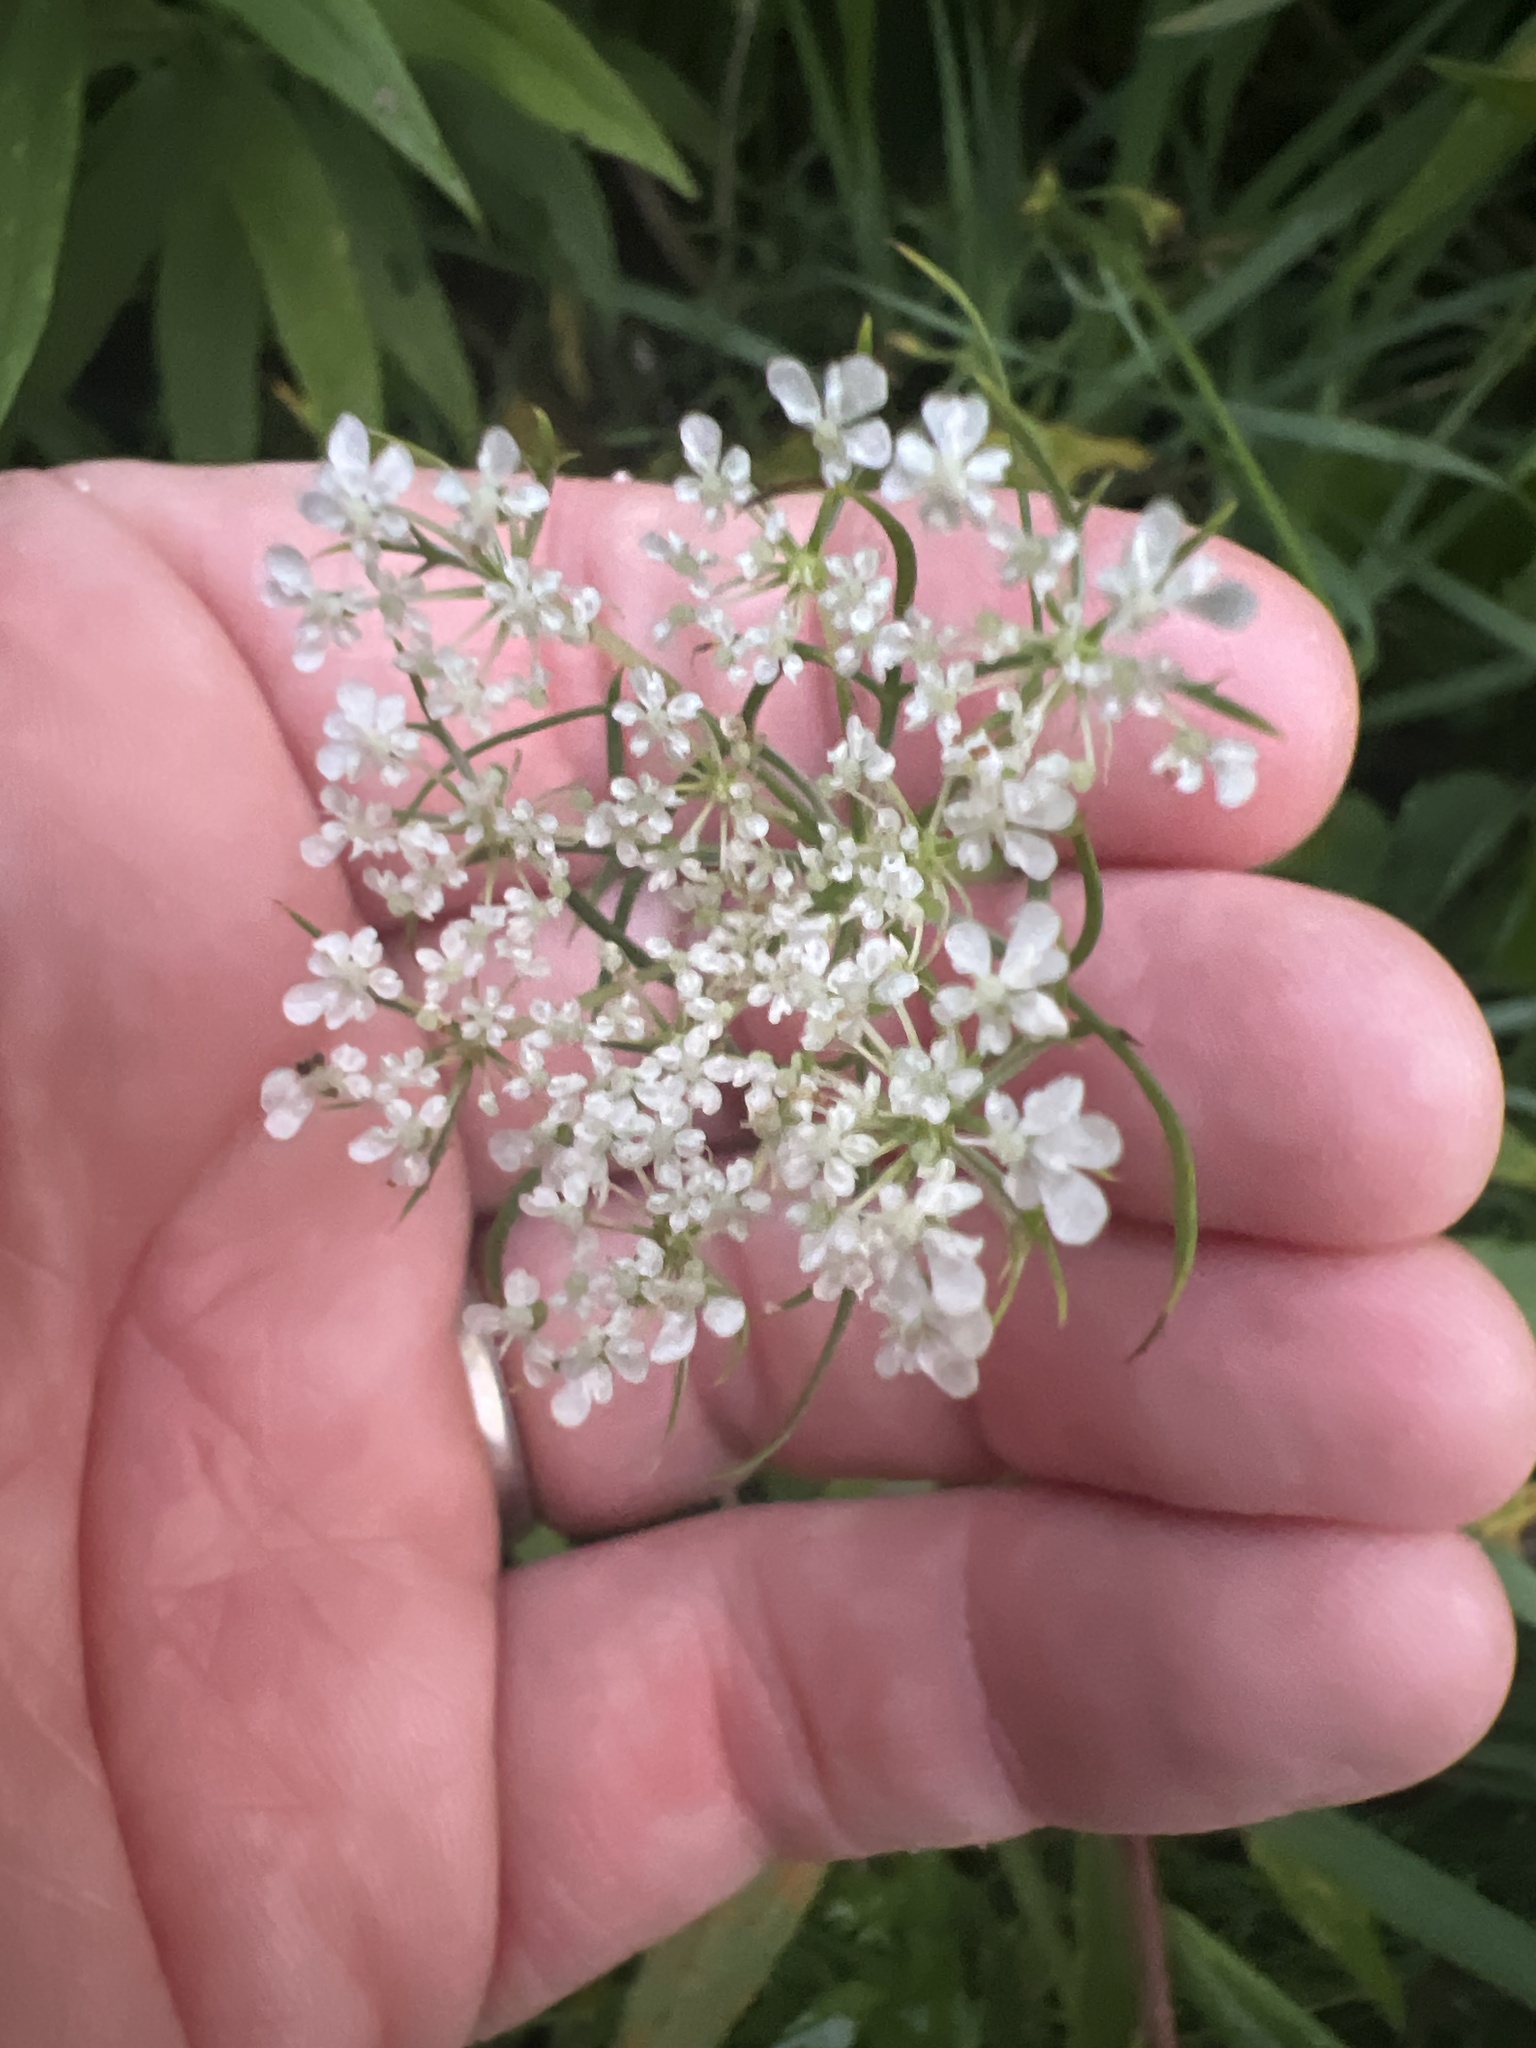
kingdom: Plantae
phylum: Tracheophyta
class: Magnoliopsida
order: Apiales
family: Apiaceae
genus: Daucus
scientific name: Daucus carota
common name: Wild carrot
